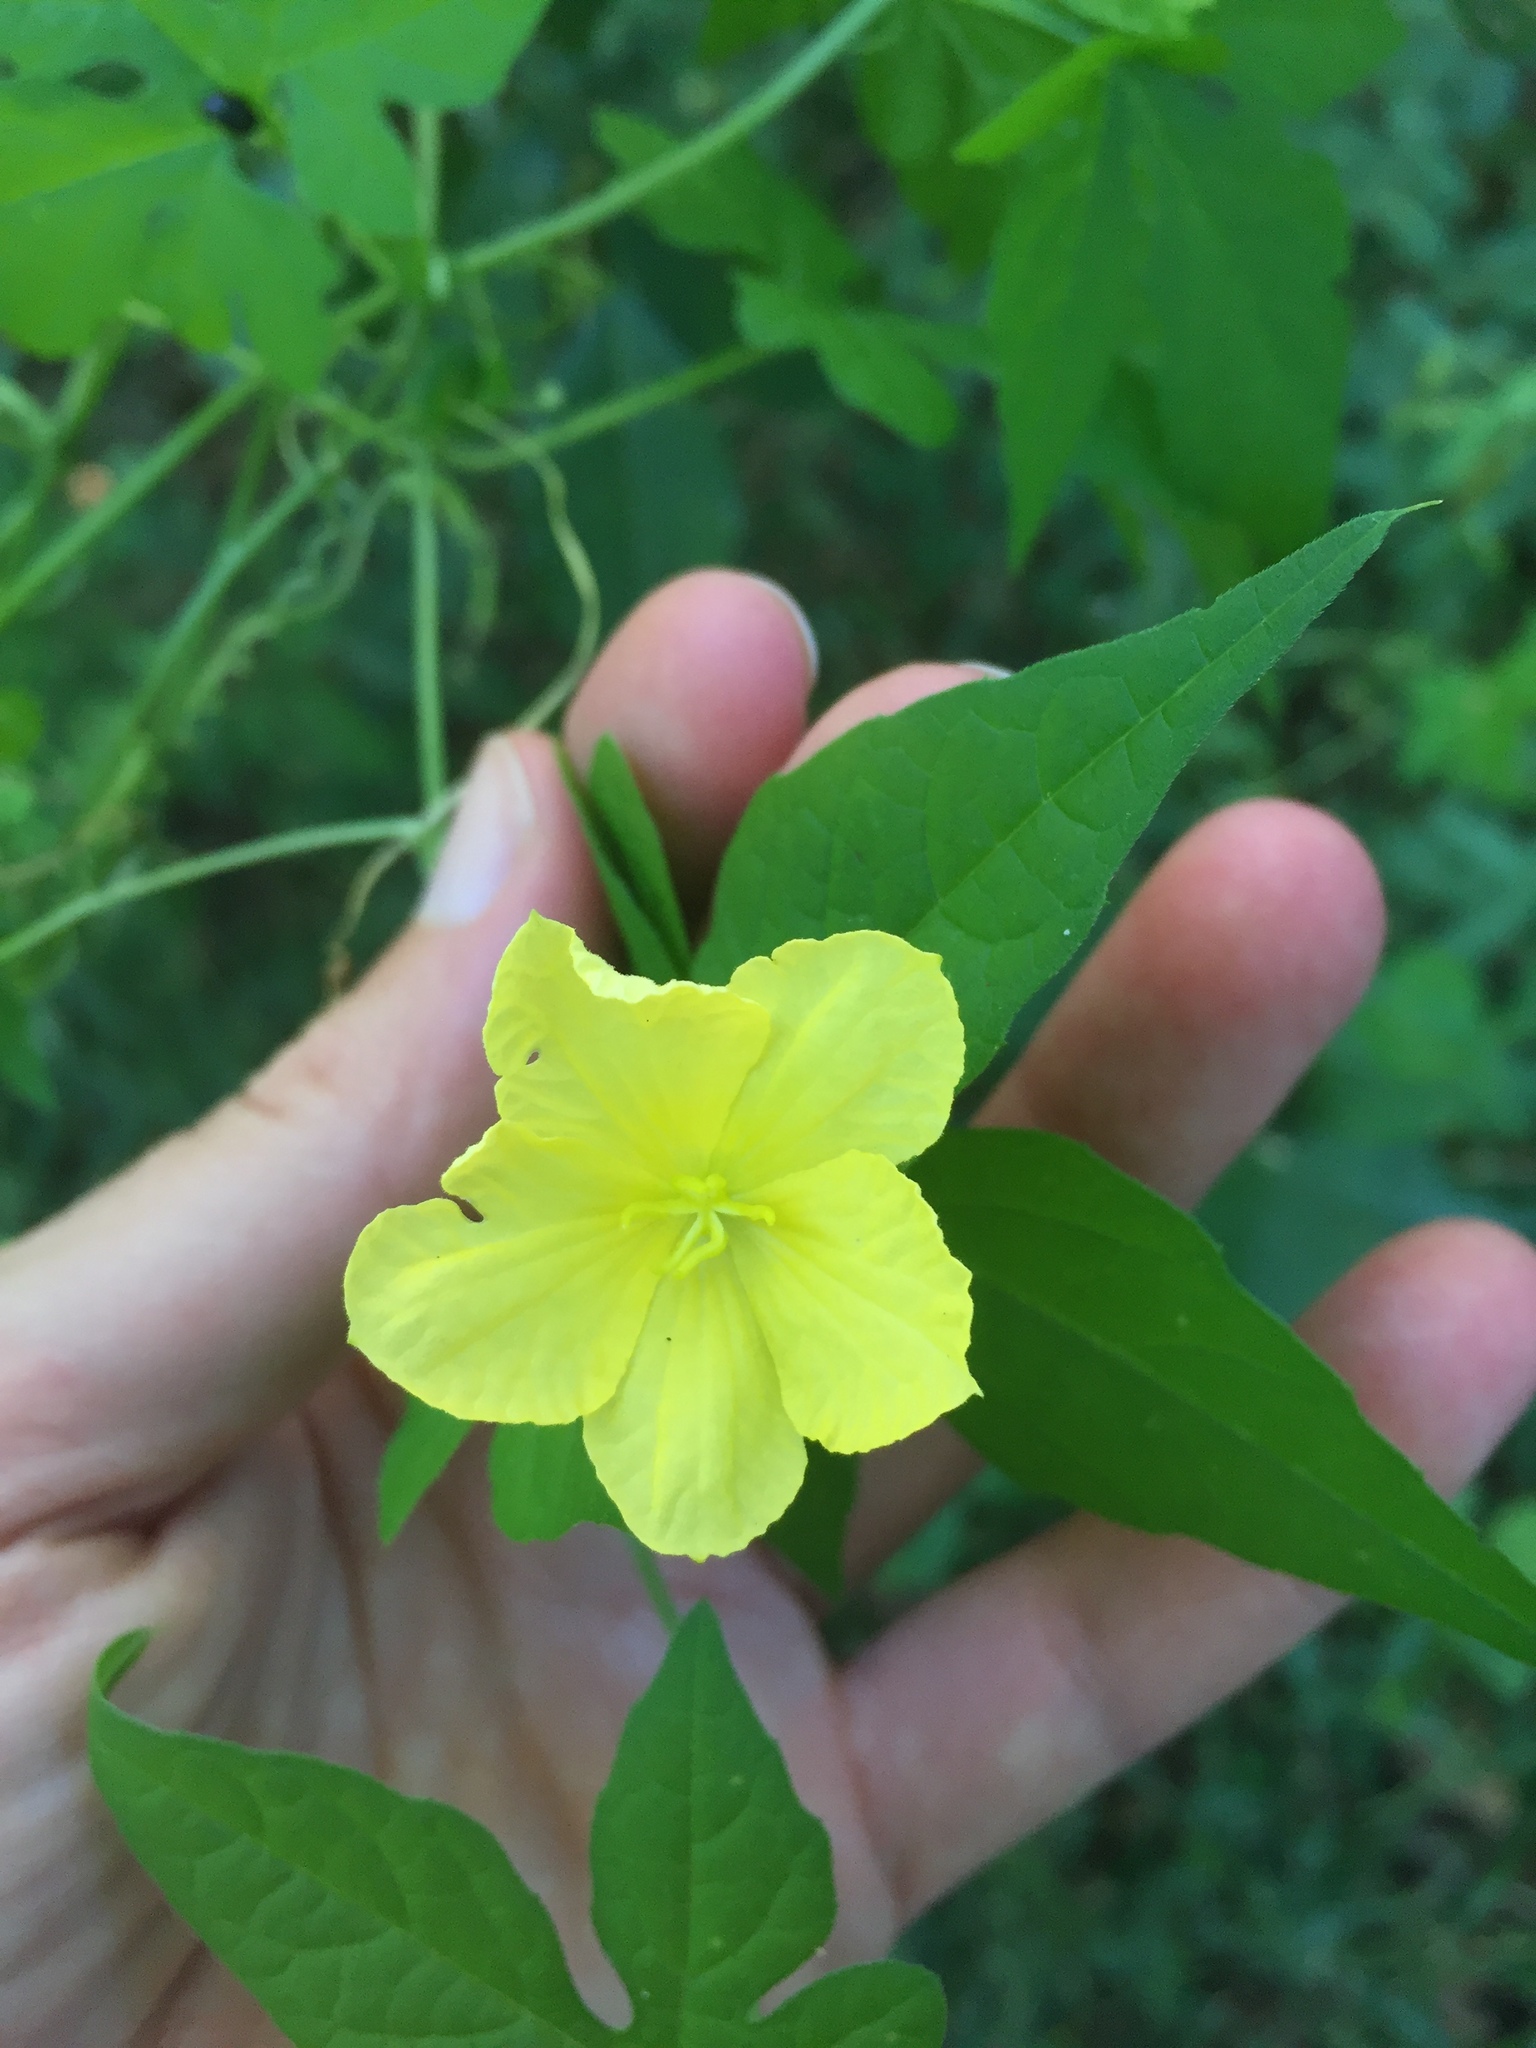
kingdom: Plantae
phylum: Tracheophyta
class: Magnoliopsida
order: Cucurbitales
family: Cucurbitaceae
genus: Momordica
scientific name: Momordica charantia
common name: Balsampear
